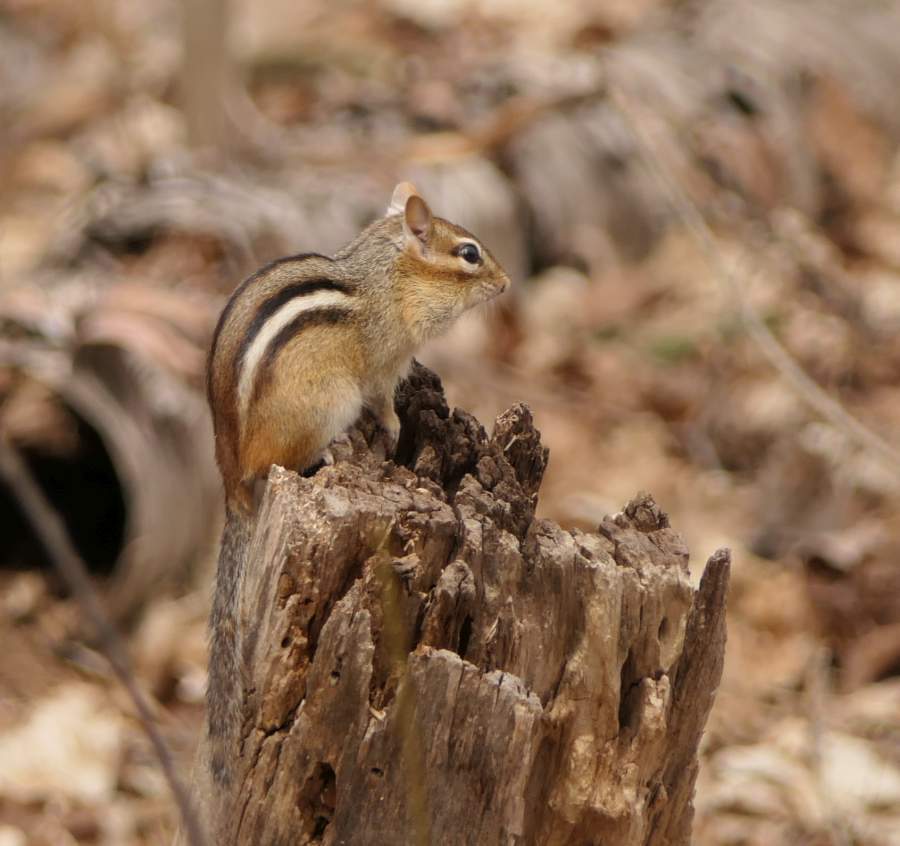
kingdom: Animalia
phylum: Chordata
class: Mammalia
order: Rodentia
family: Sciuridae
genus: Tamias
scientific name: Tamias striatus
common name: Eastern chipmunk
